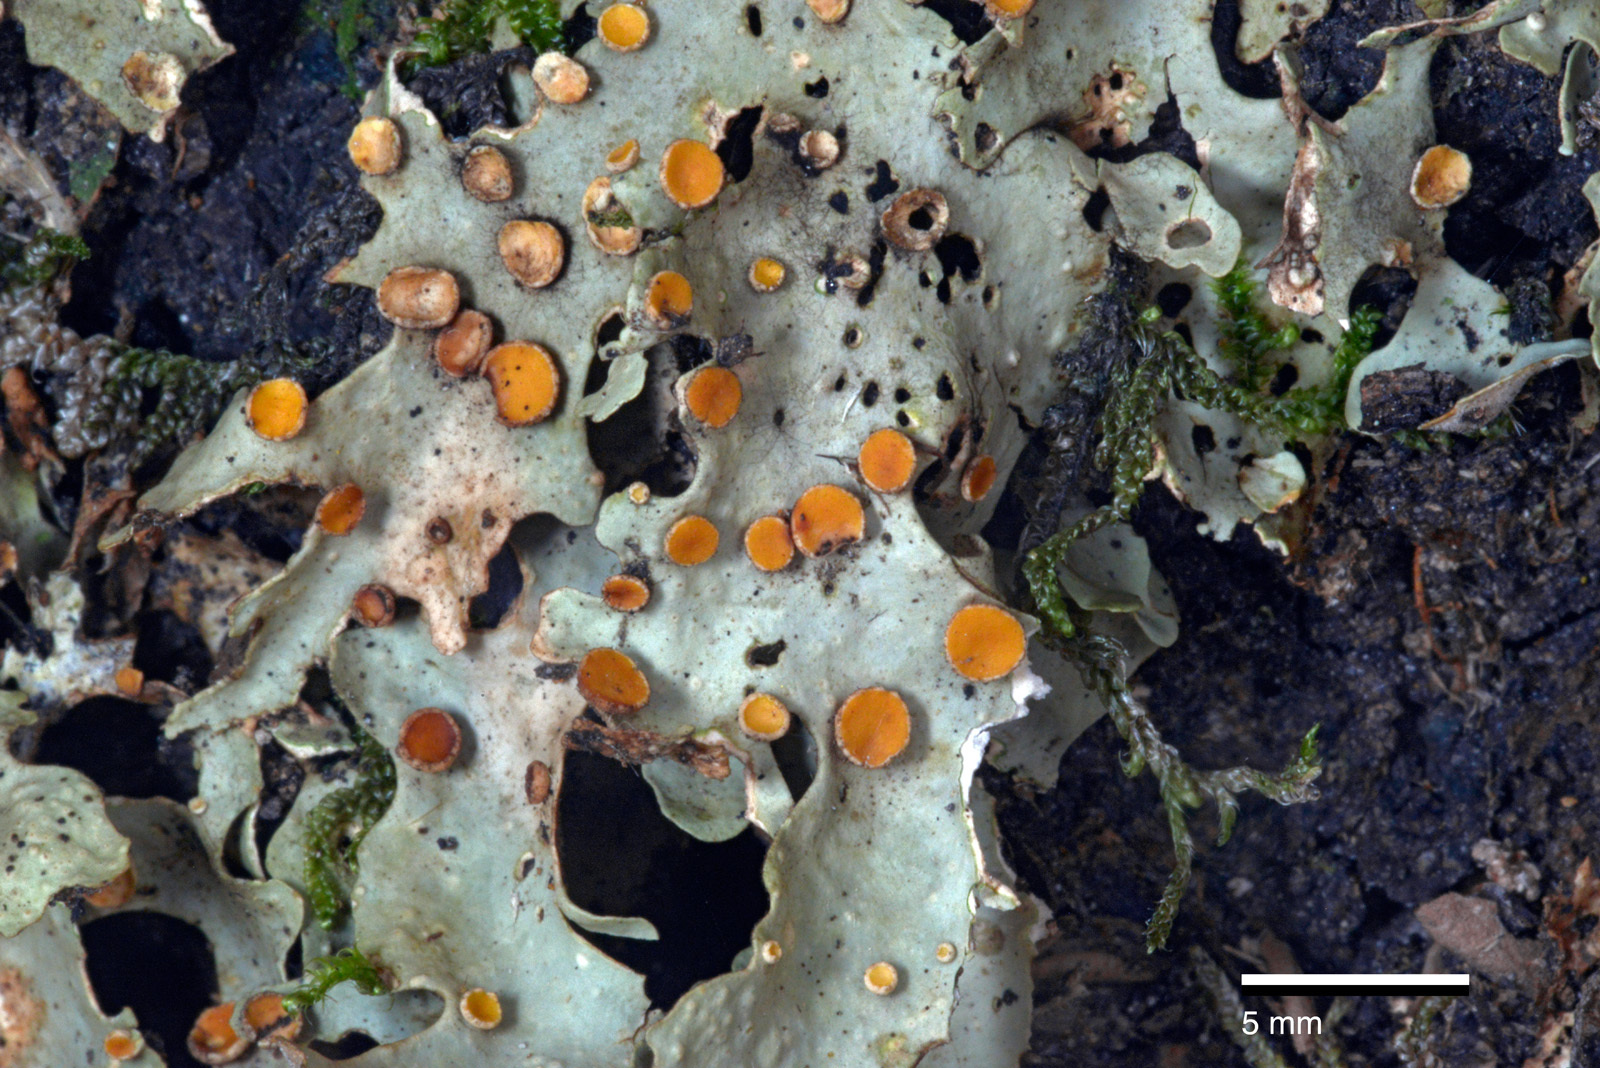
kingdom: Fungi
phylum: Ascomycota
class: Lecanoromycetes
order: Peltigerales
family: Lobariaceae
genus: Sticta
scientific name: Sticta subcaperata
